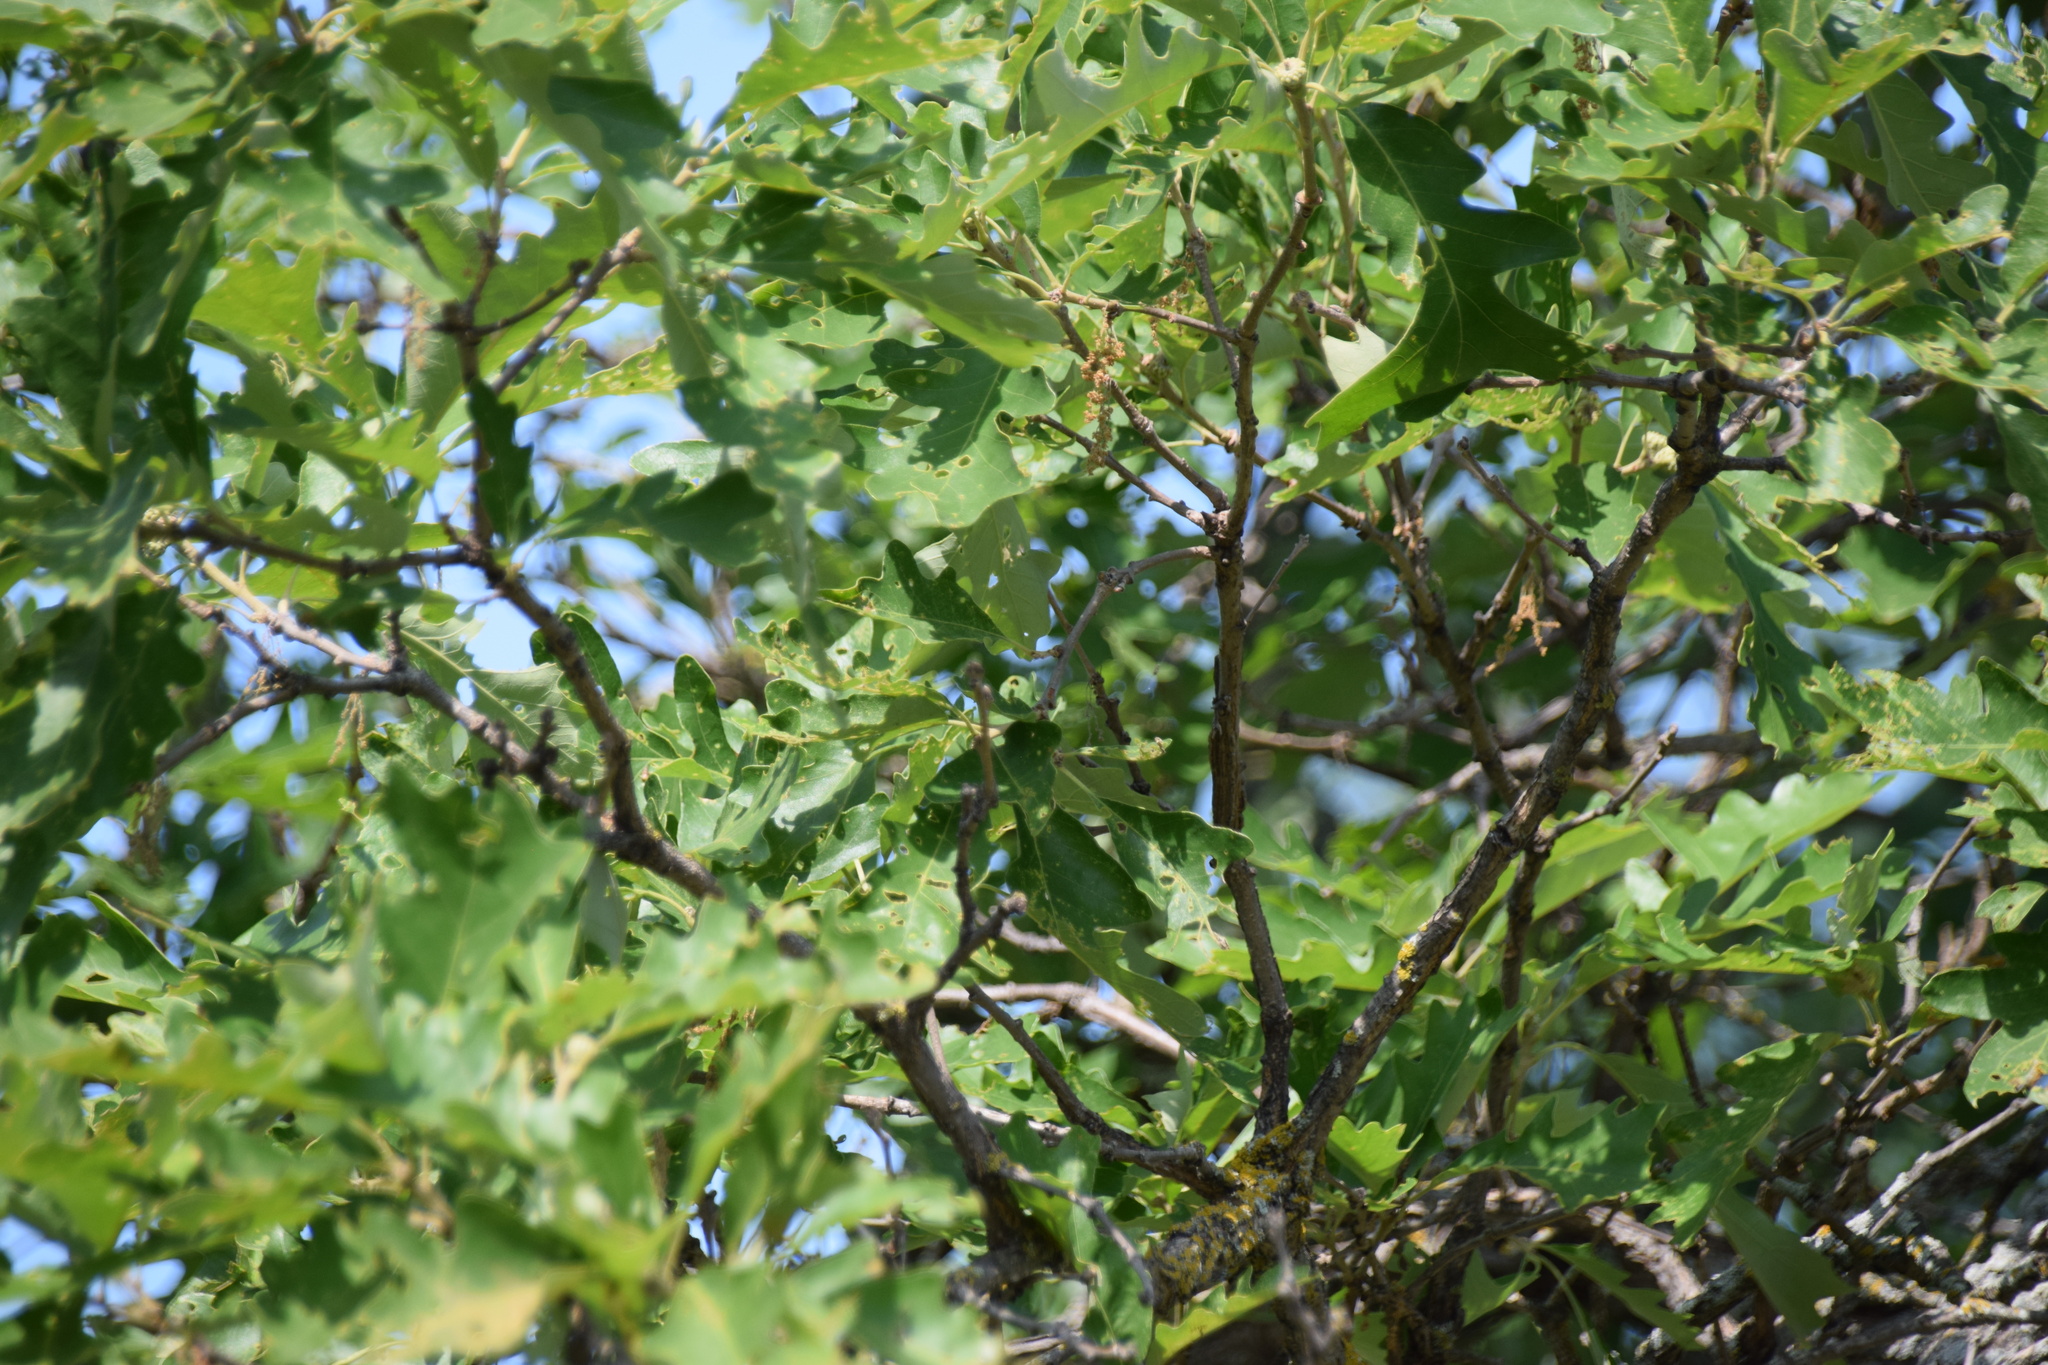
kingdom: Plantae
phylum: Tracheophyta
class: Magnoliopsida
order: Fagales
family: Fagaceae
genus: Quercus
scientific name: Quercus macrocarpa
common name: Bur oak
